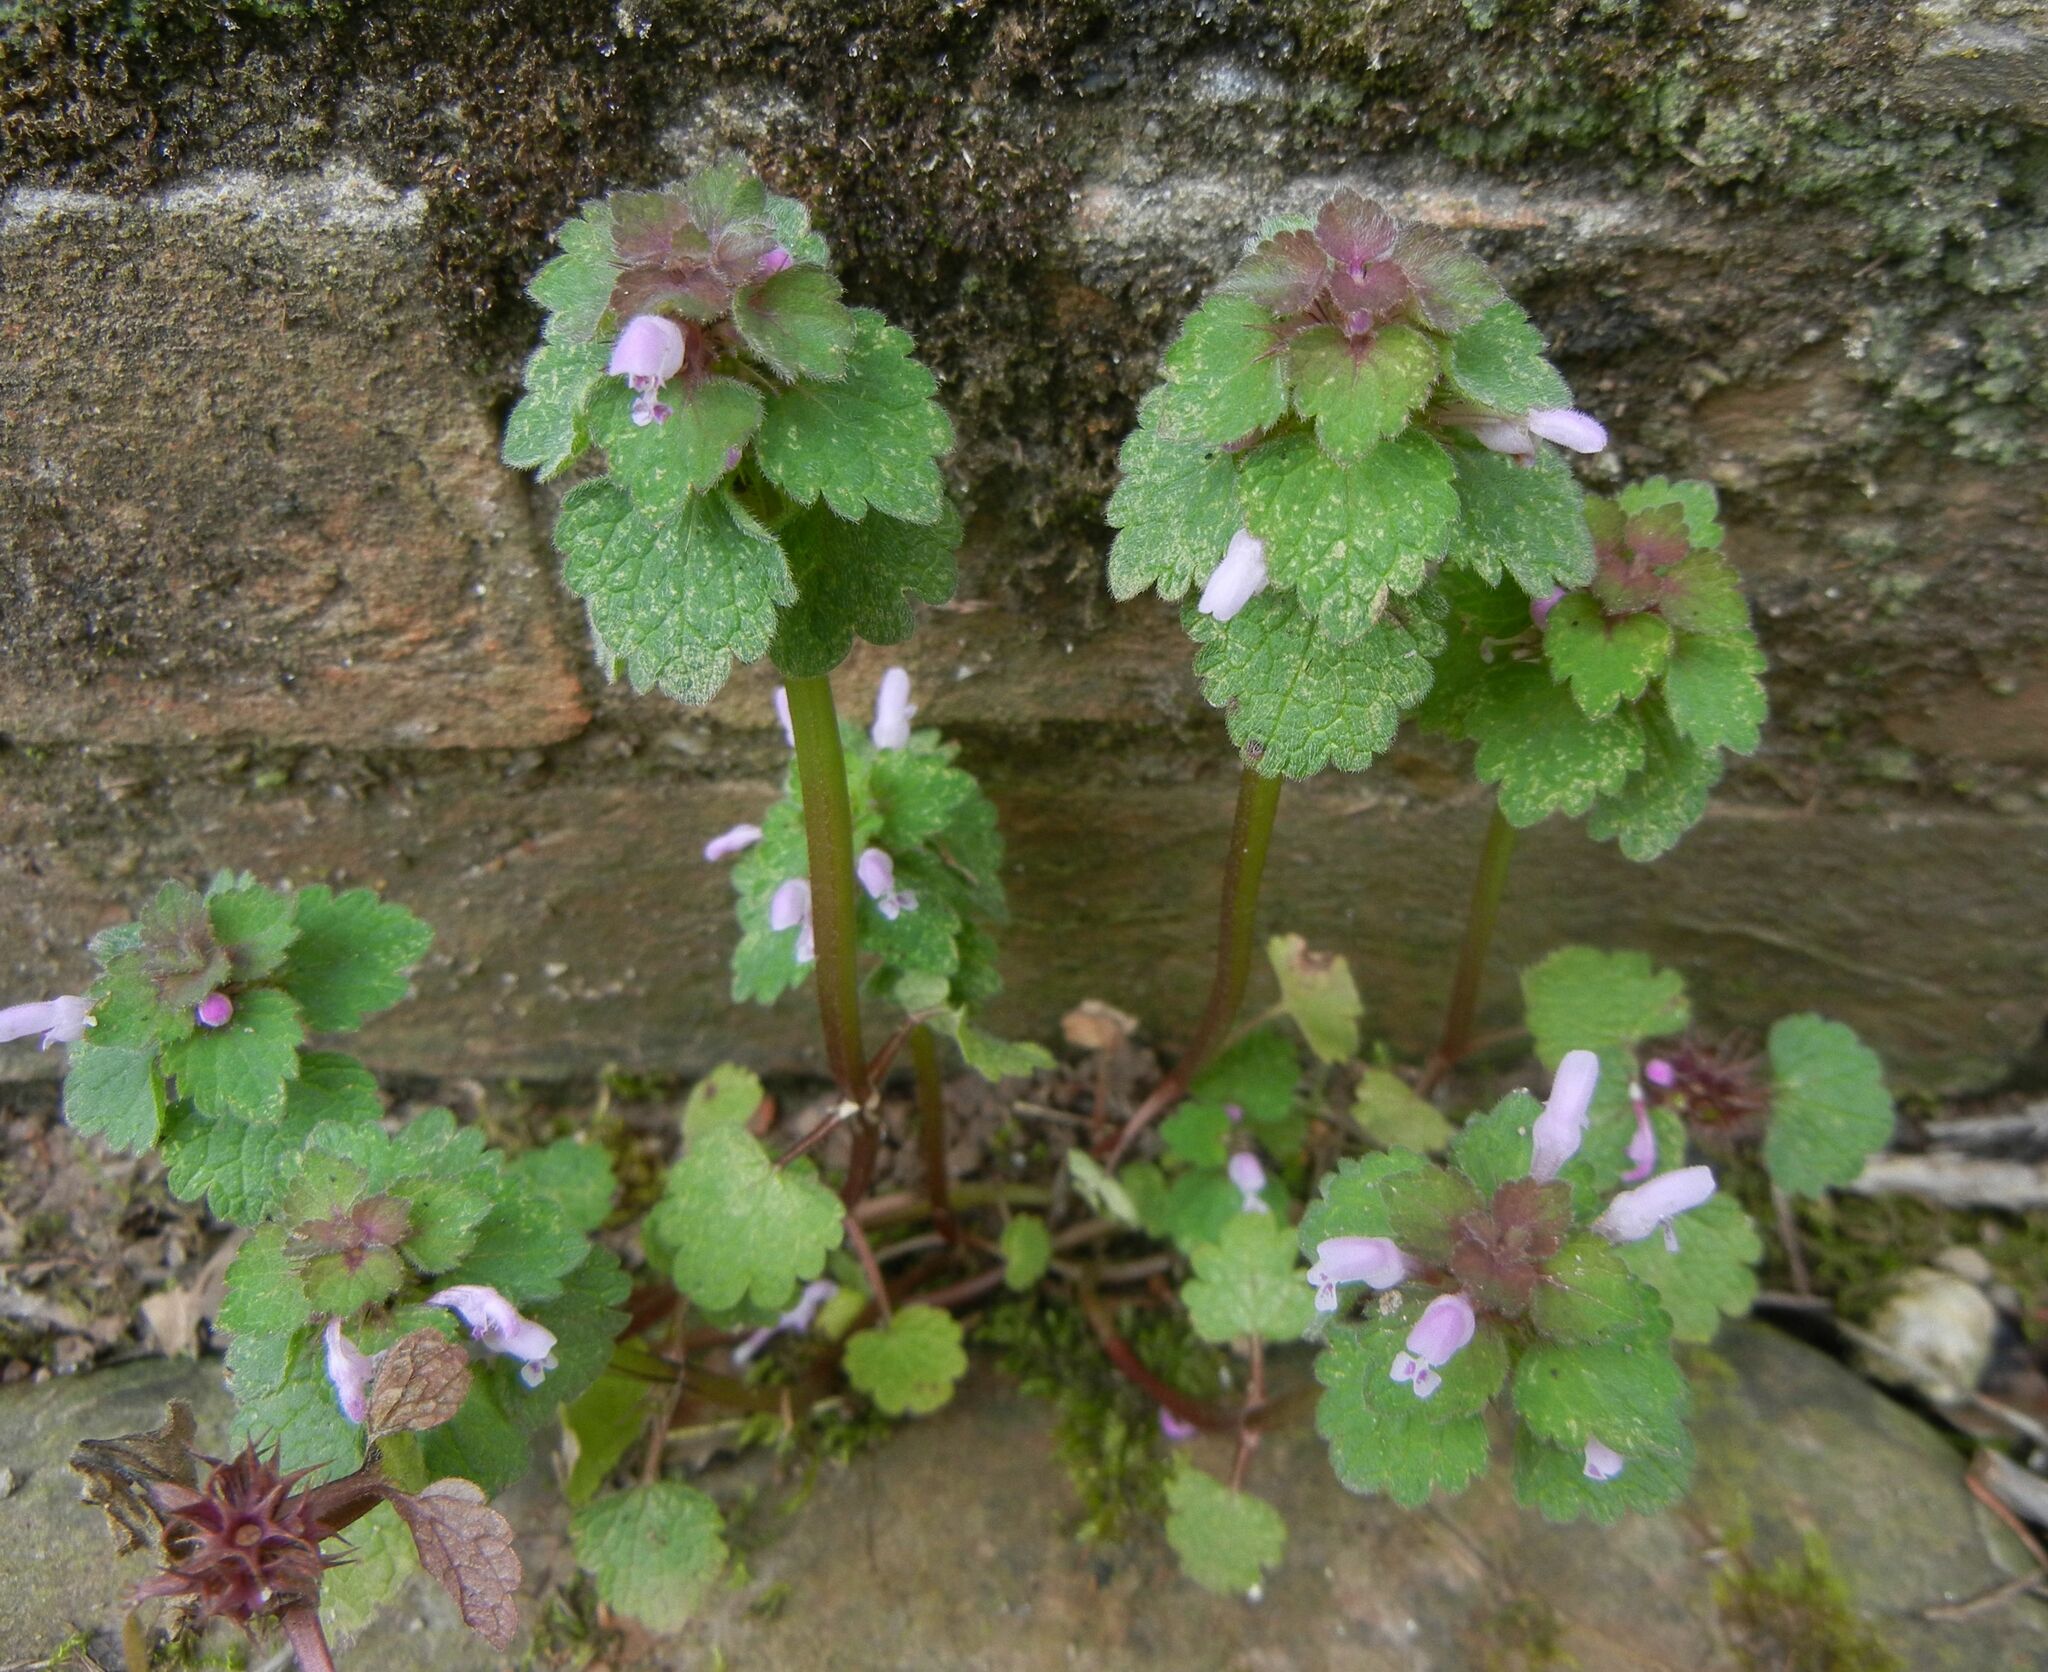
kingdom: Plantae
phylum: Tracheophyta
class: Magnoliopsida
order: Lamiales
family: Lamiaceae
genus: Lamium
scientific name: Lamium purpureum
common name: Red dead-nettle
